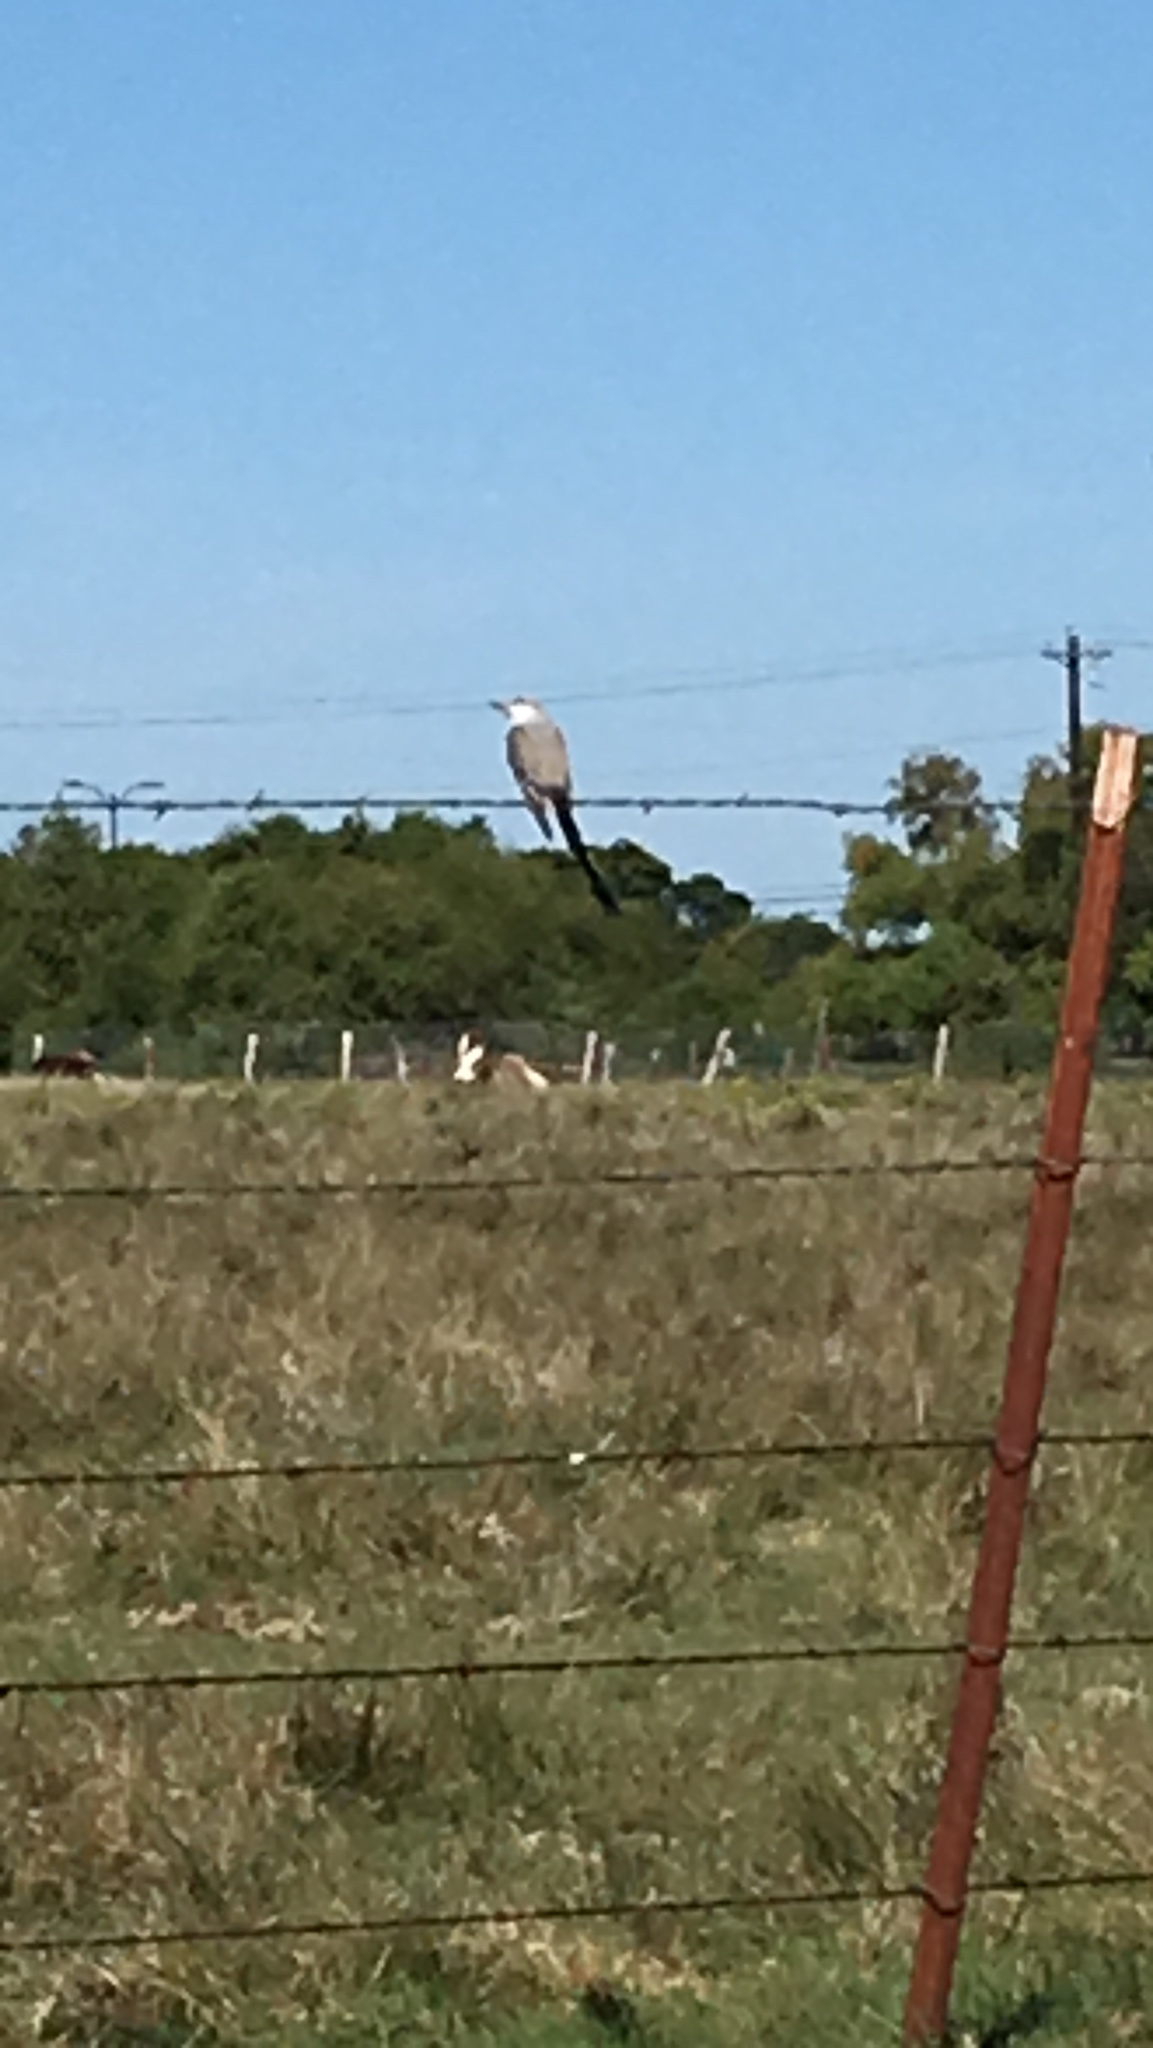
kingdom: Animalia
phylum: Chordata
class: Aves
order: Passeriformes
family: Tyrannidae
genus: Tyrannus
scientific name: Tyrannus forficatus
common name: Scissor-tailed flycatcher
